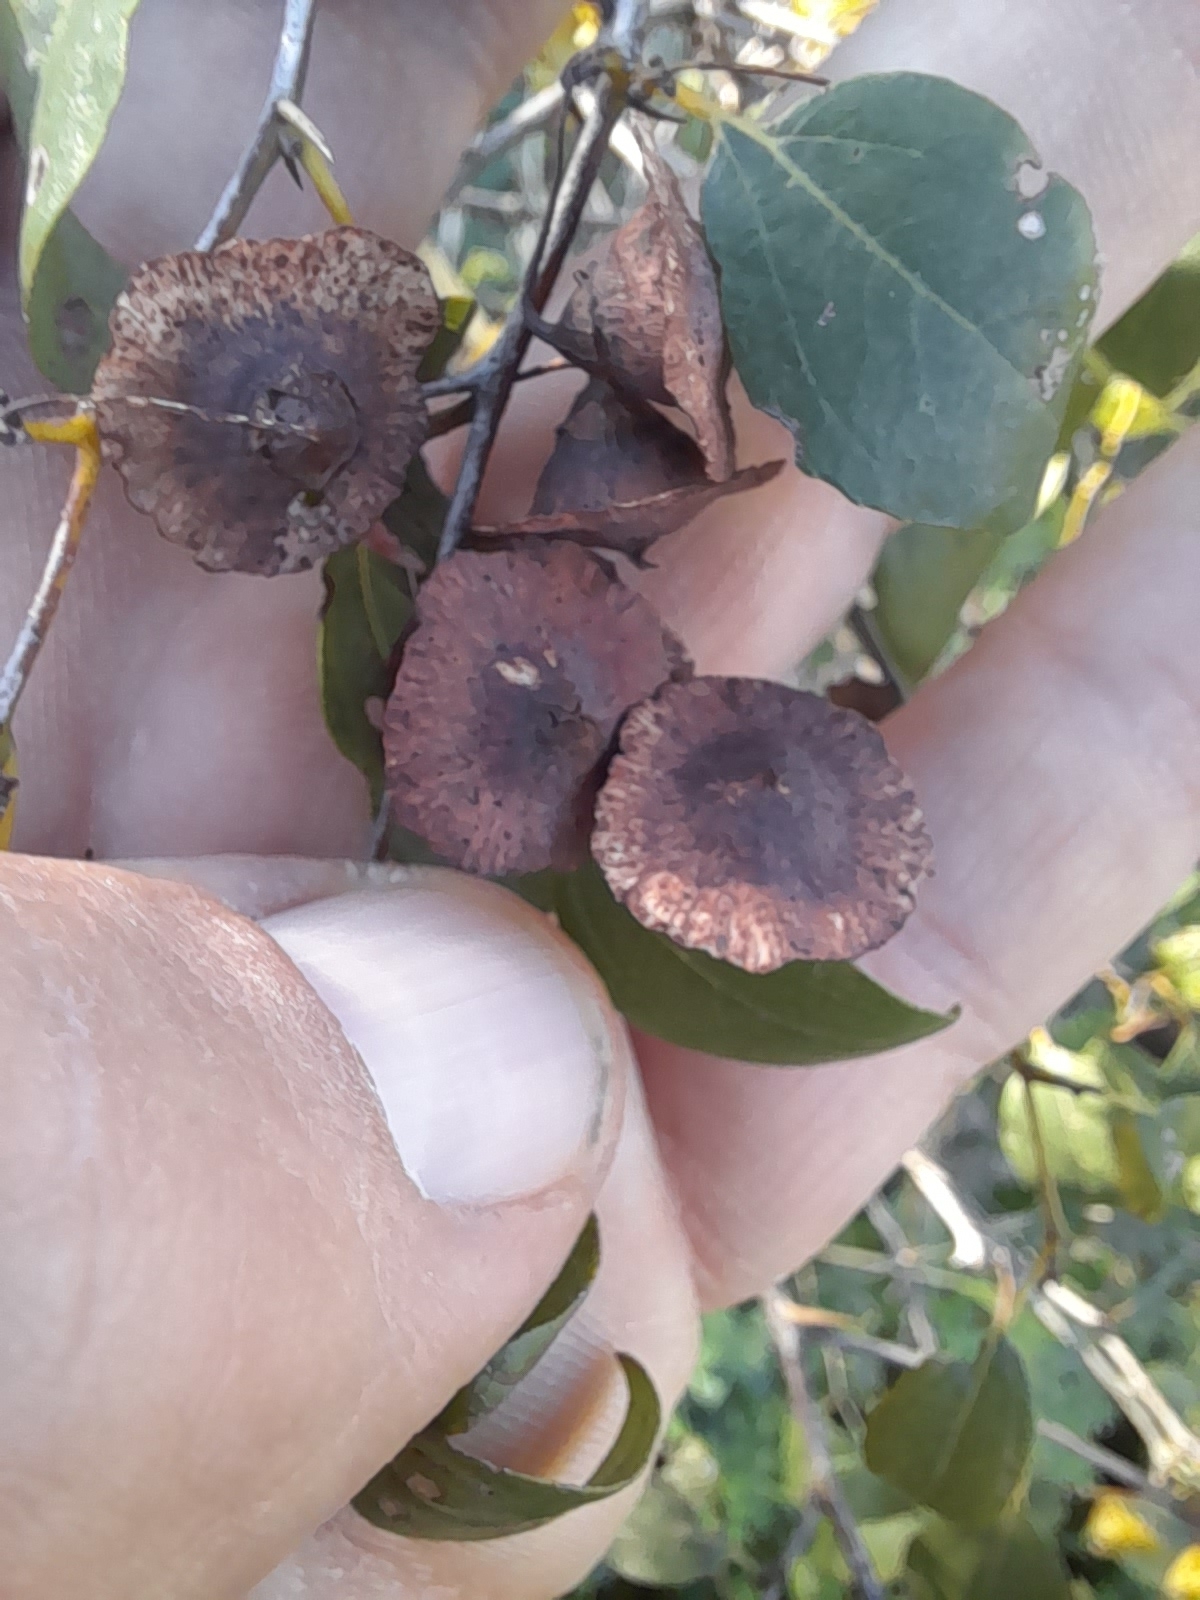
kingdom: Plantae
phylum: Tracheophyta
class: Magnoliopsida
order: Rosales
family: Rhamnaceae
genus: Paliurus
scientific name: Paliurus spina-christi
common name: Jeruselem thorn
